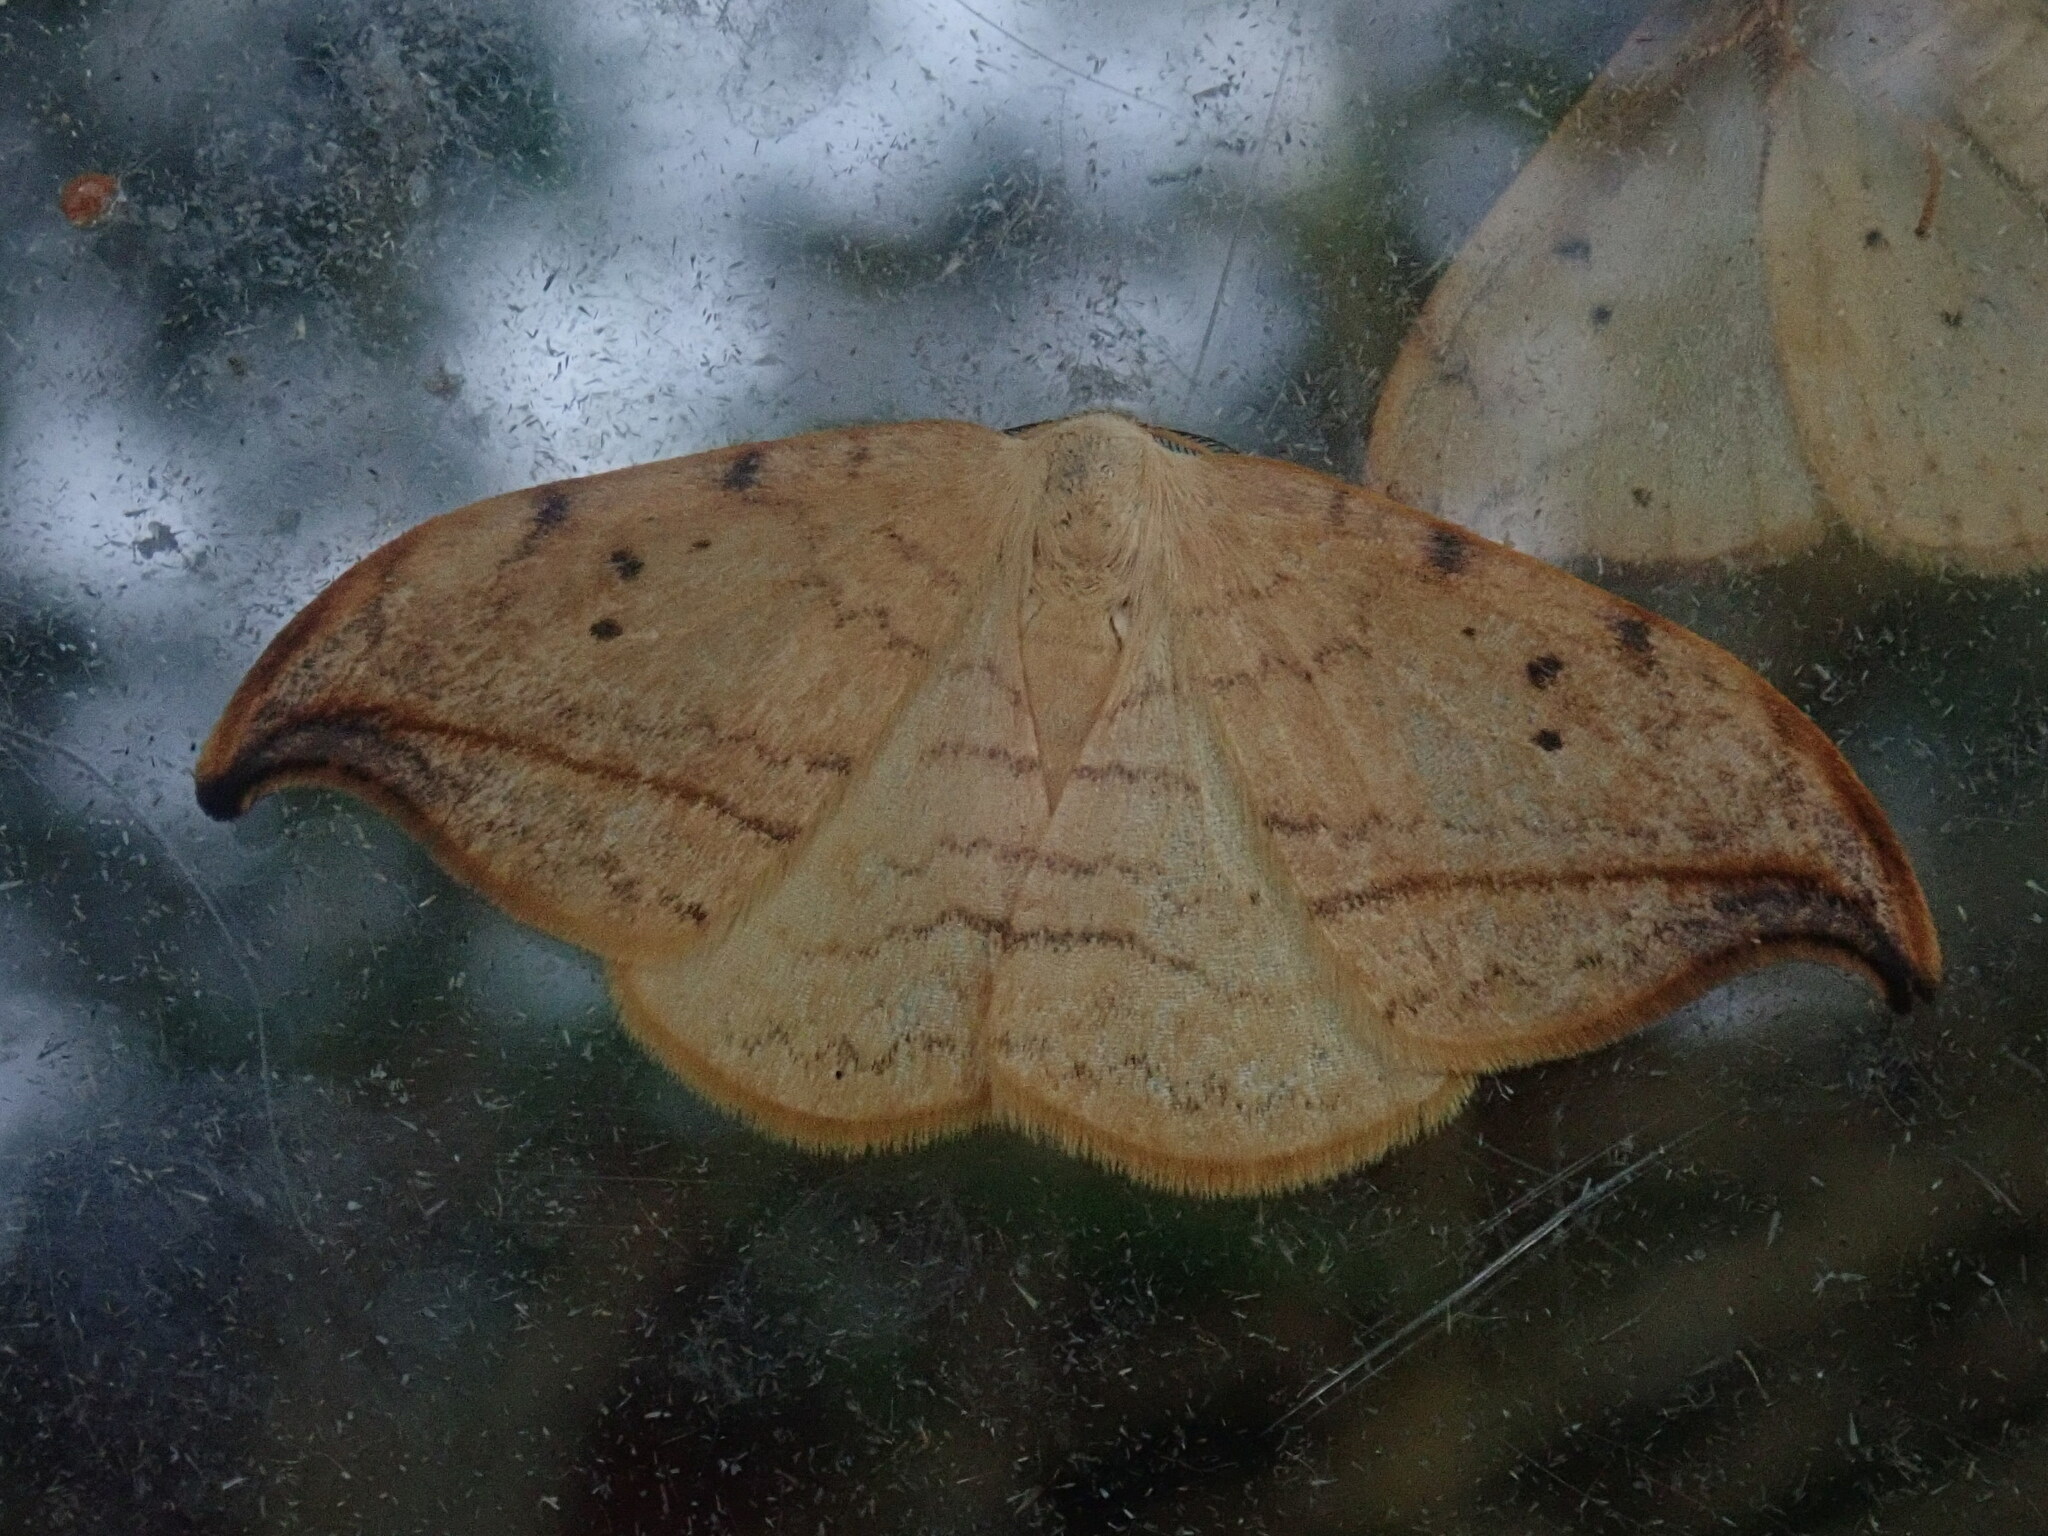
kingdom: Animalia
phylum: Arthropoda
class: Insecta
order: Lepidoptera
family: Drepanidae
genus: Drepana
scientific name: Drepana arcuata
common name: Arched hooktip moth
